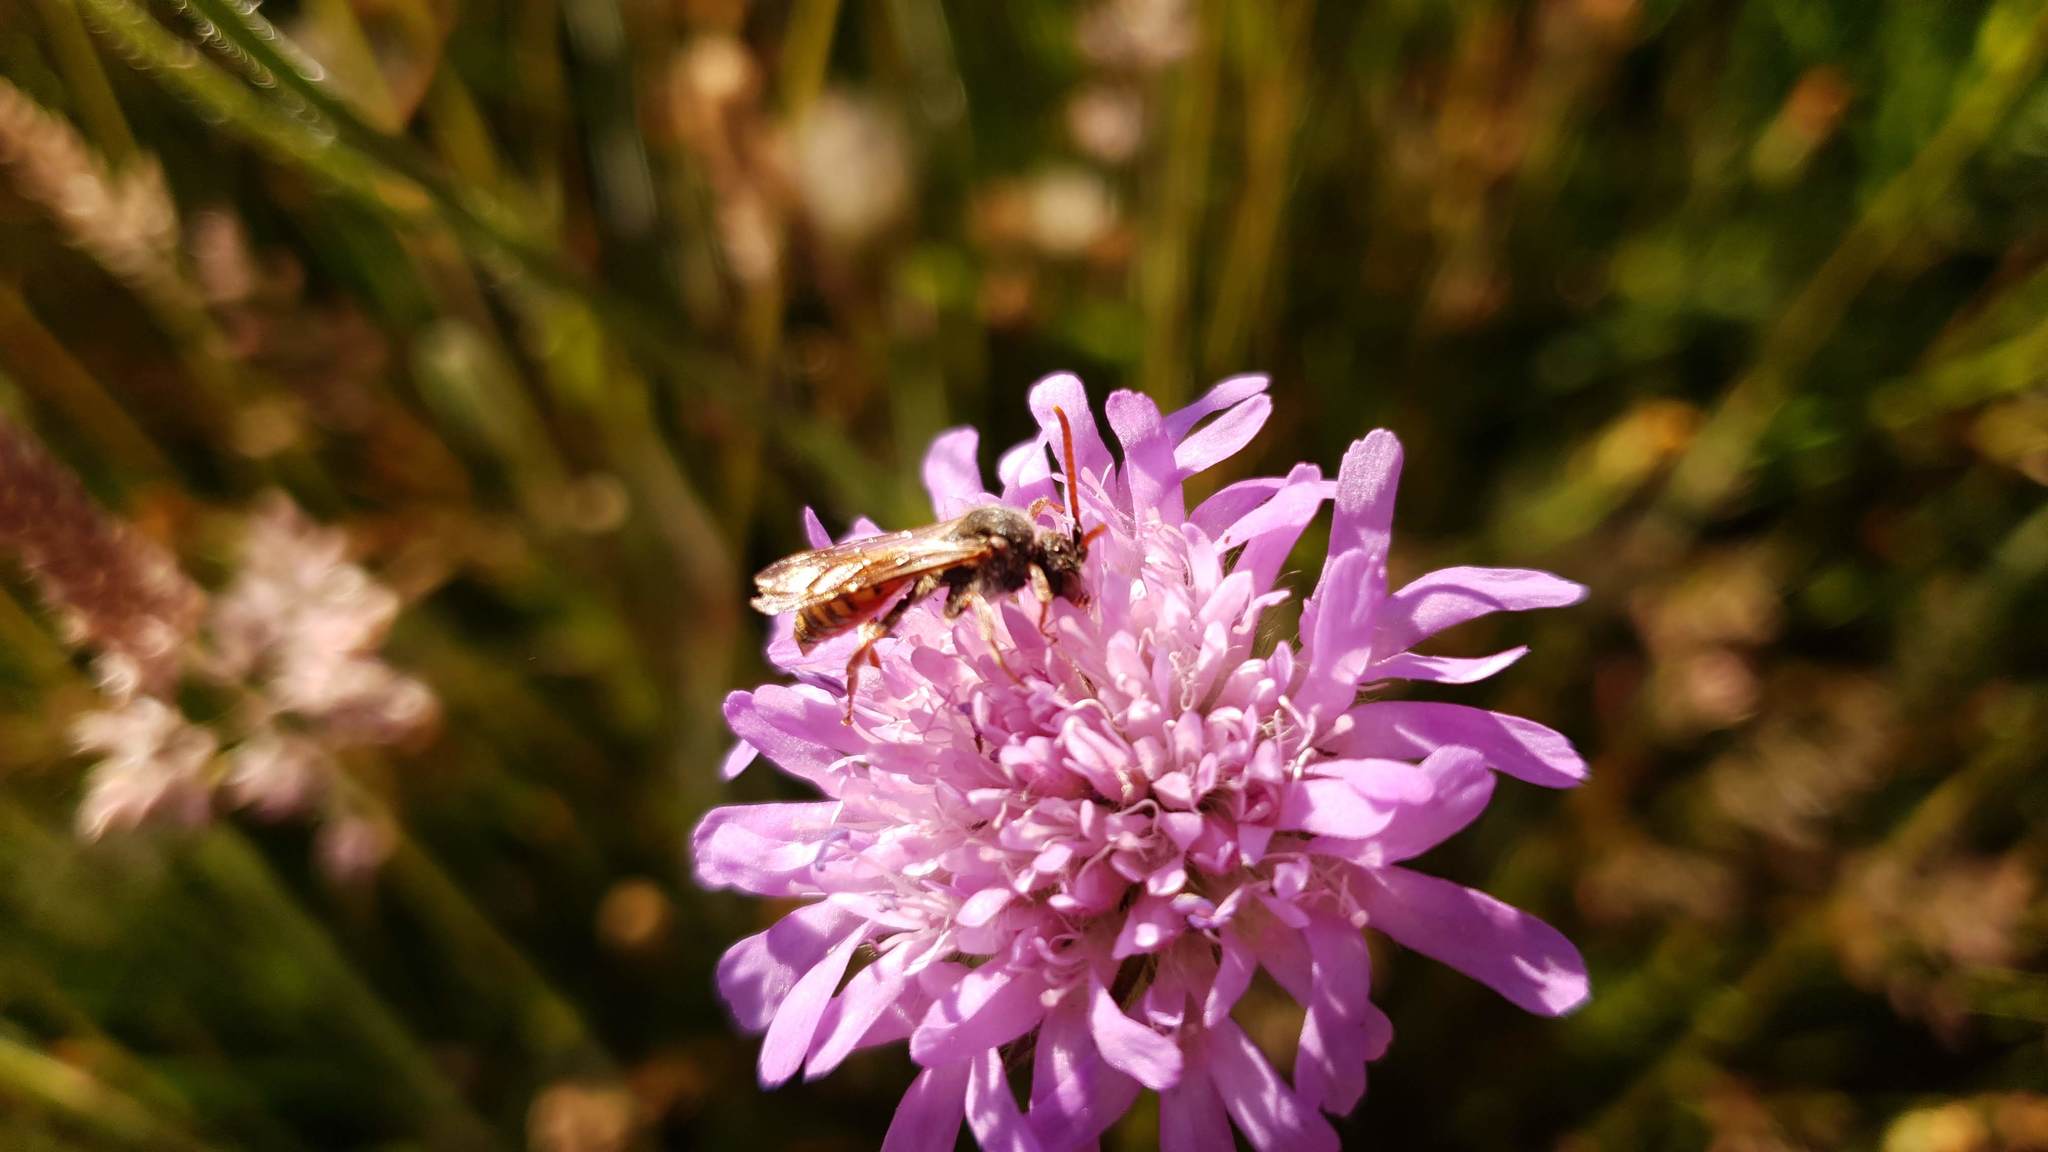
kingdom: Animalia
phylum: Arthropoda
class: Insecta
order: Hymenoptera
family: Apidae
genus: Nomada
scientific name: Nomada armata
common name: Armed nomad bee
